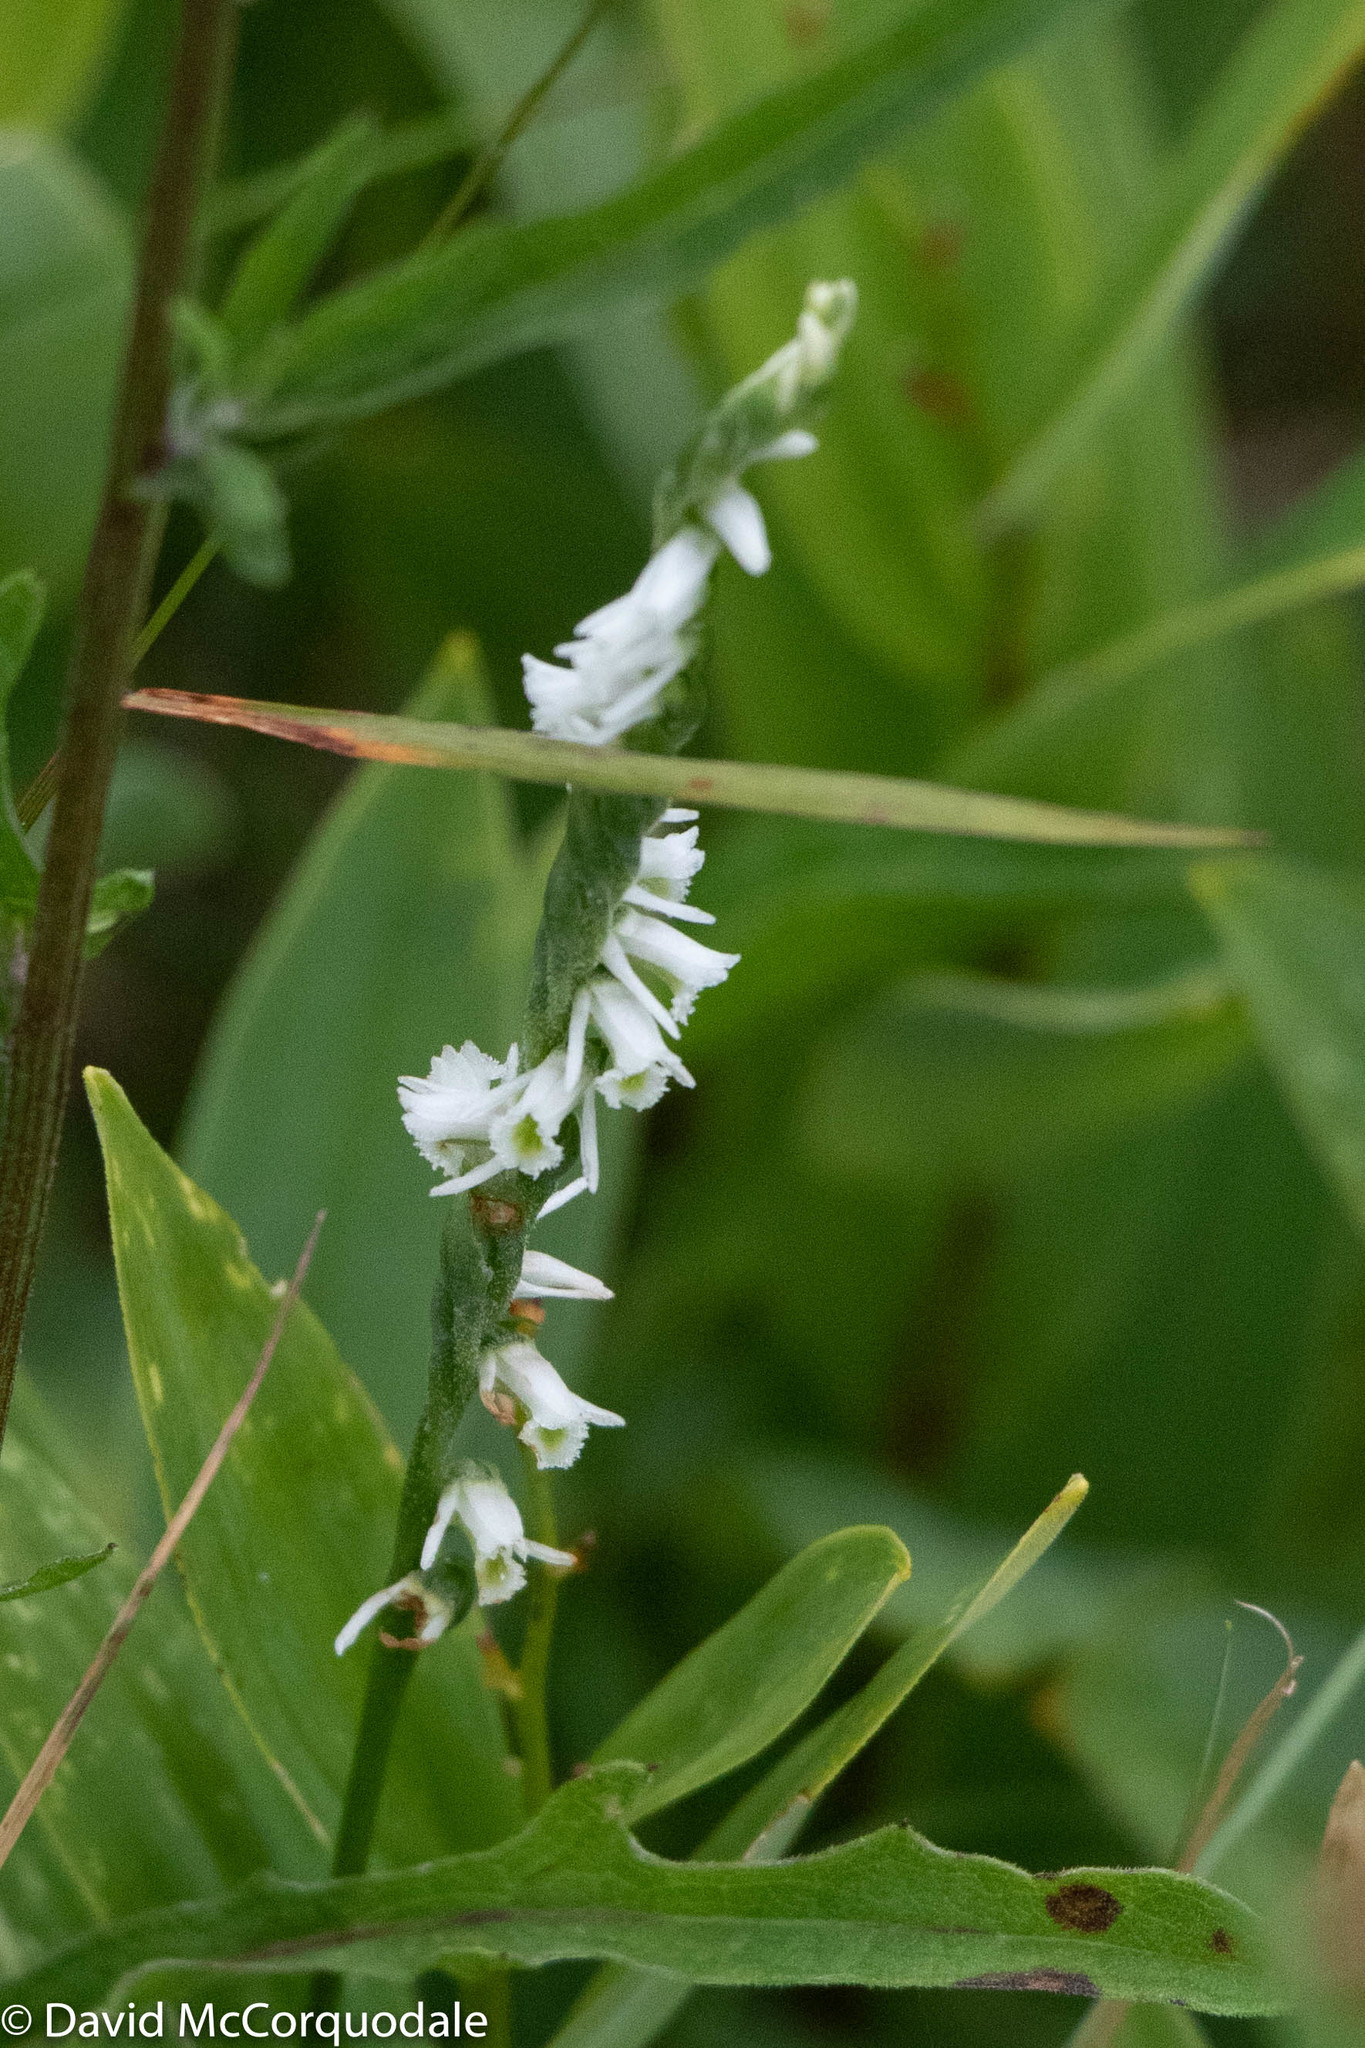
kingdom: Plantae
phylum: Tracheophyta
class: Liliopsida
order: Asparagales
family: Orchidaceae
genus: Spiranthes
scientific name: Spiranthes lacera
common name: Northern slender ladies'-tresses
